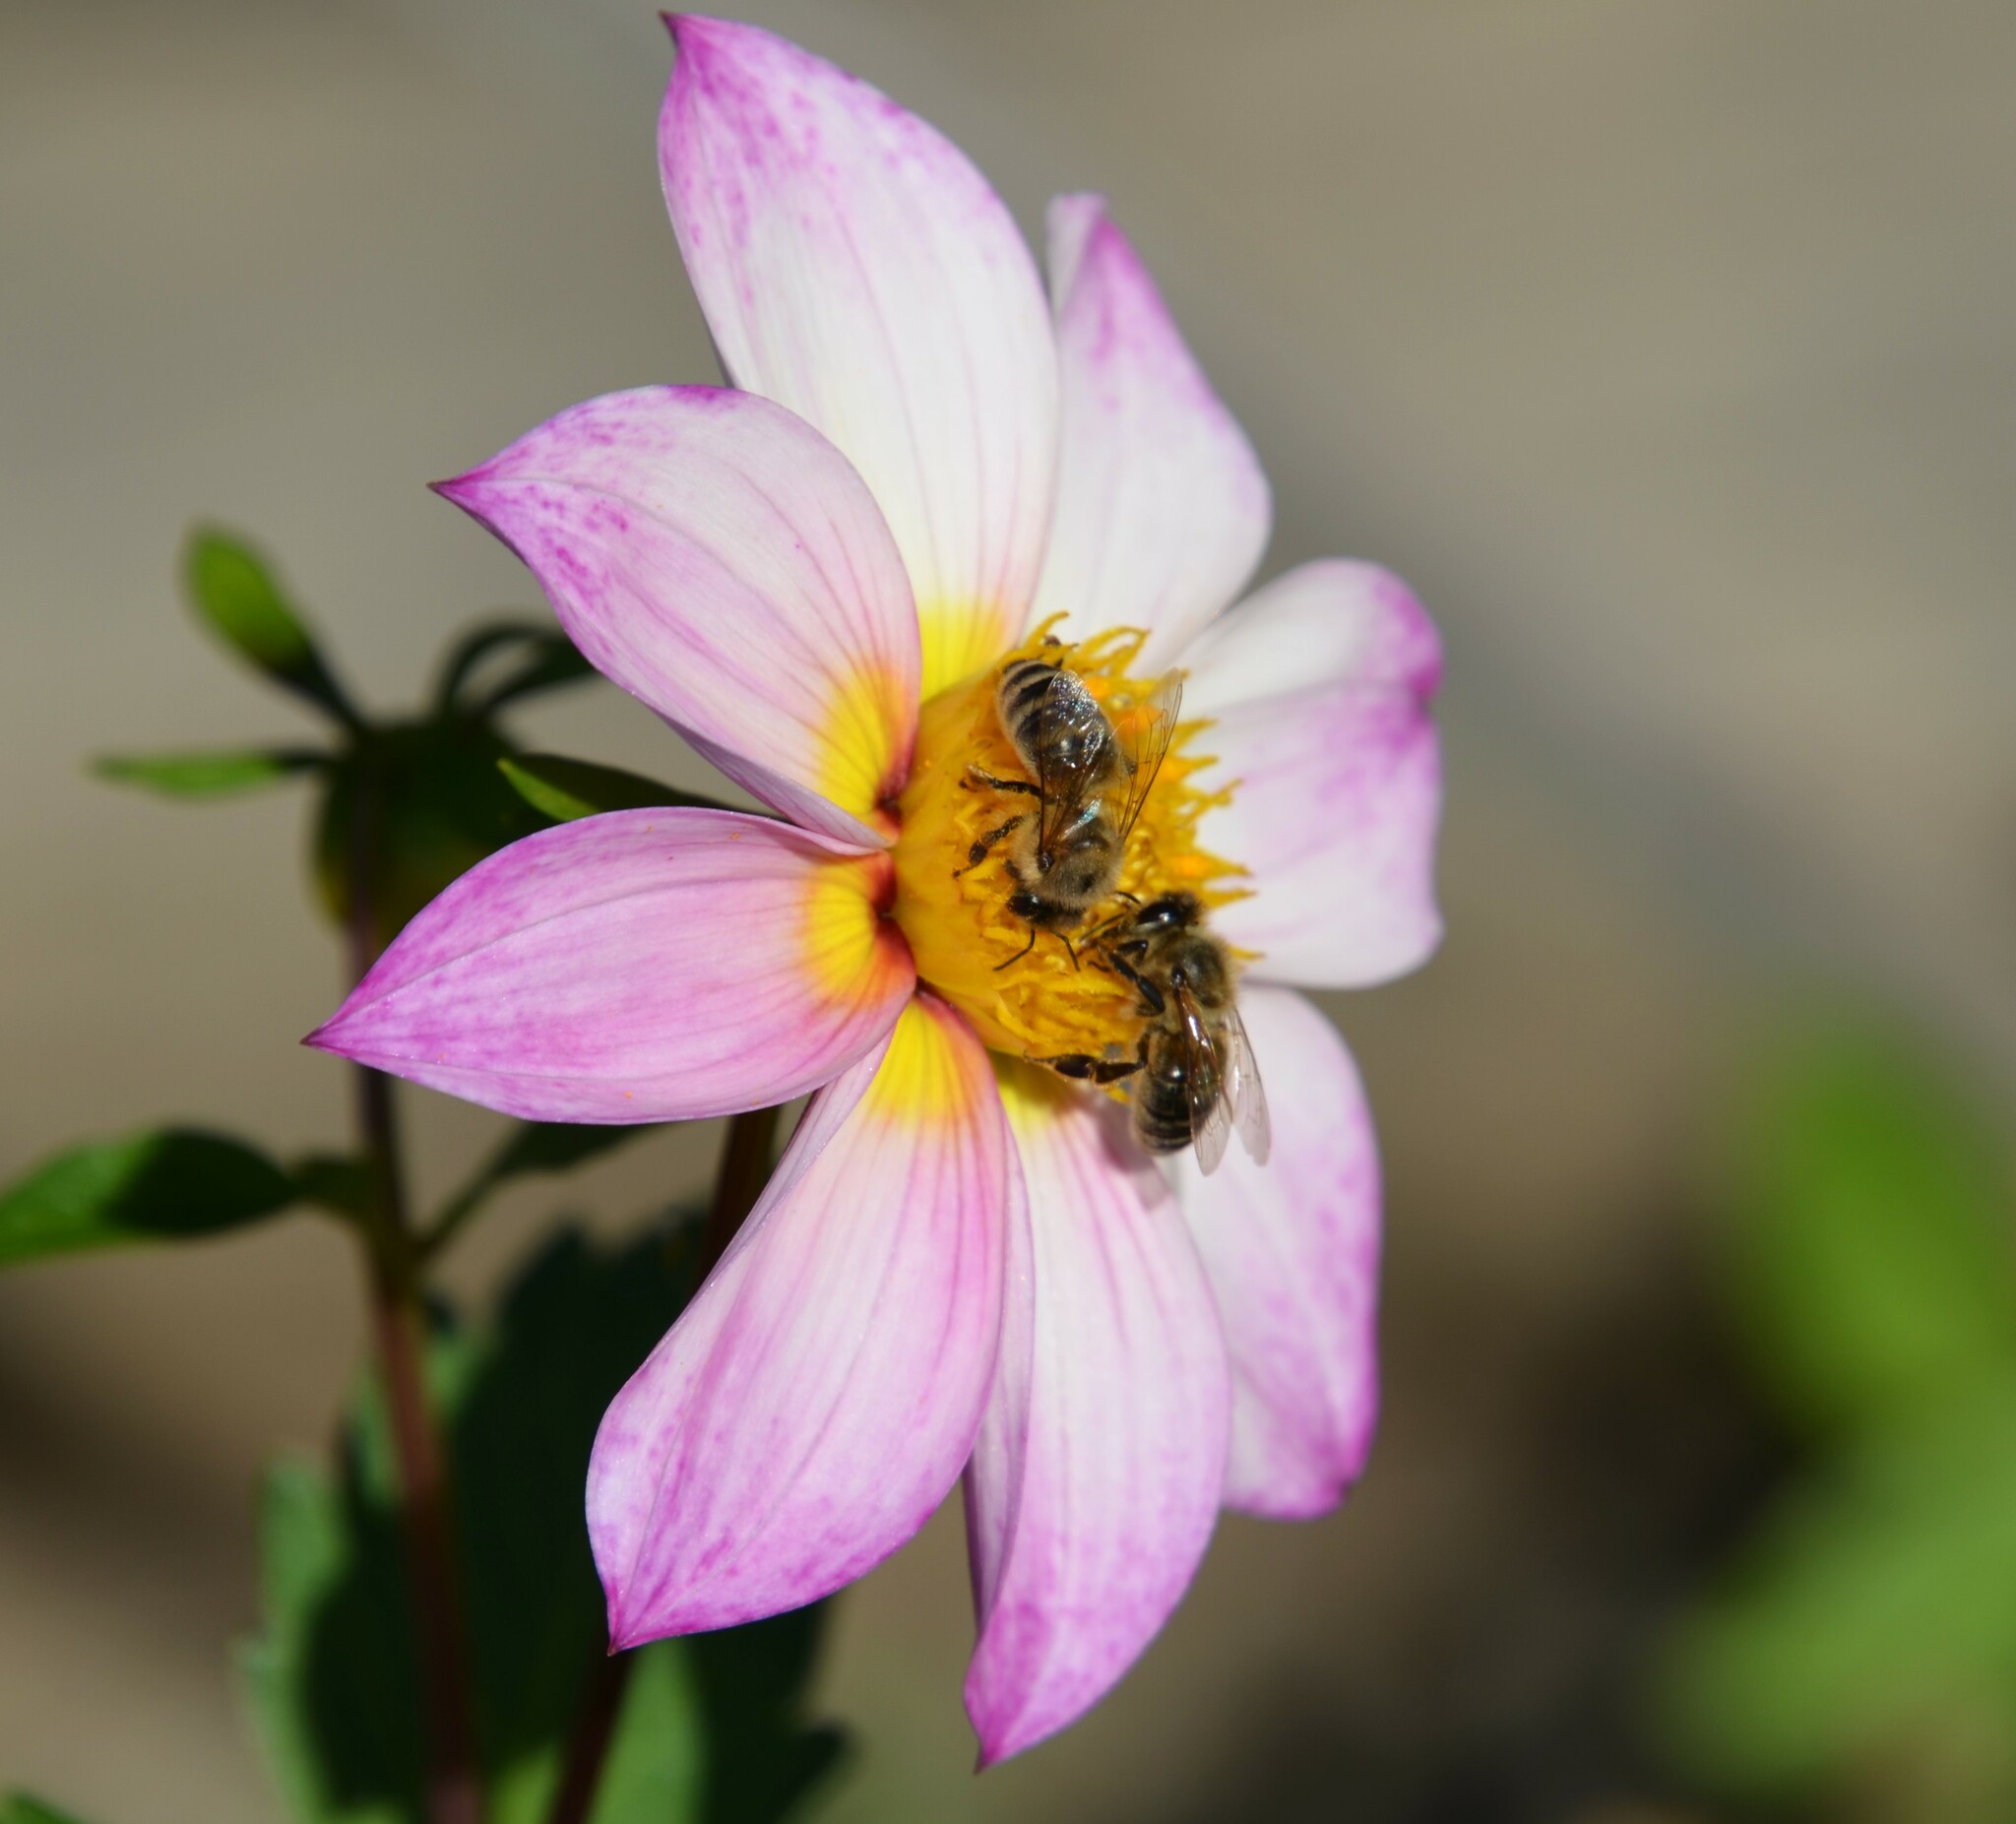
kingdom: Animalia
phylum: Arthropoda
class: Insecta
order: Hymenoptera
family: Apidae
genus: Apis
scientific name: Apis mellifera
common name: Honey bee
